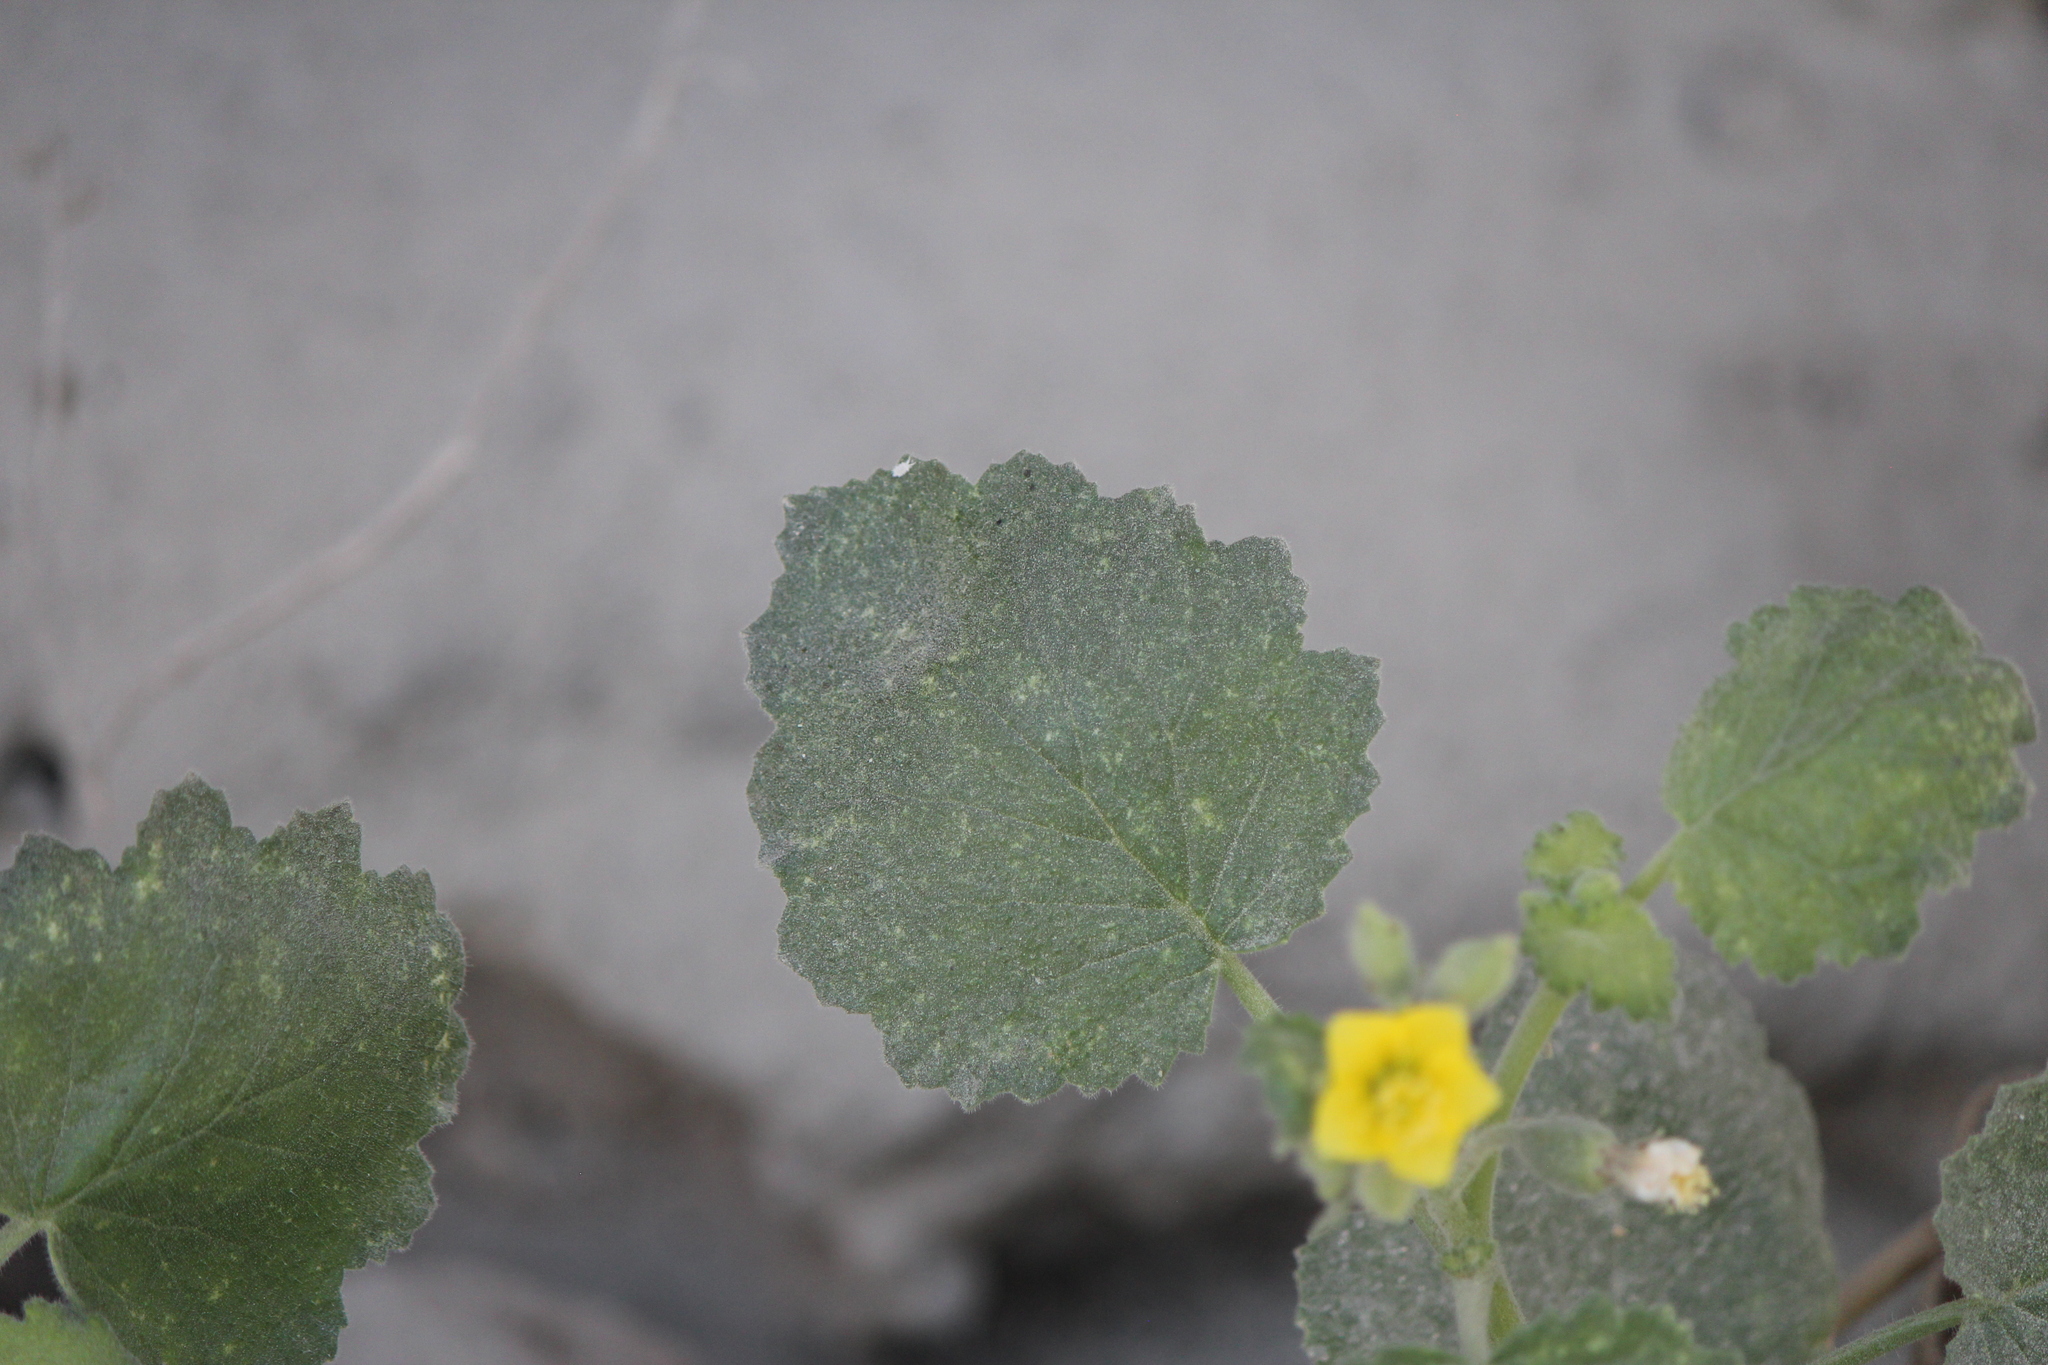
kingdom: Plantae
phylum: Tracheophyta
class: Magnoliopsida
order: Cornales
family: Loasaceae
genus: Eucnide
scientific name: Eucnide hirta
